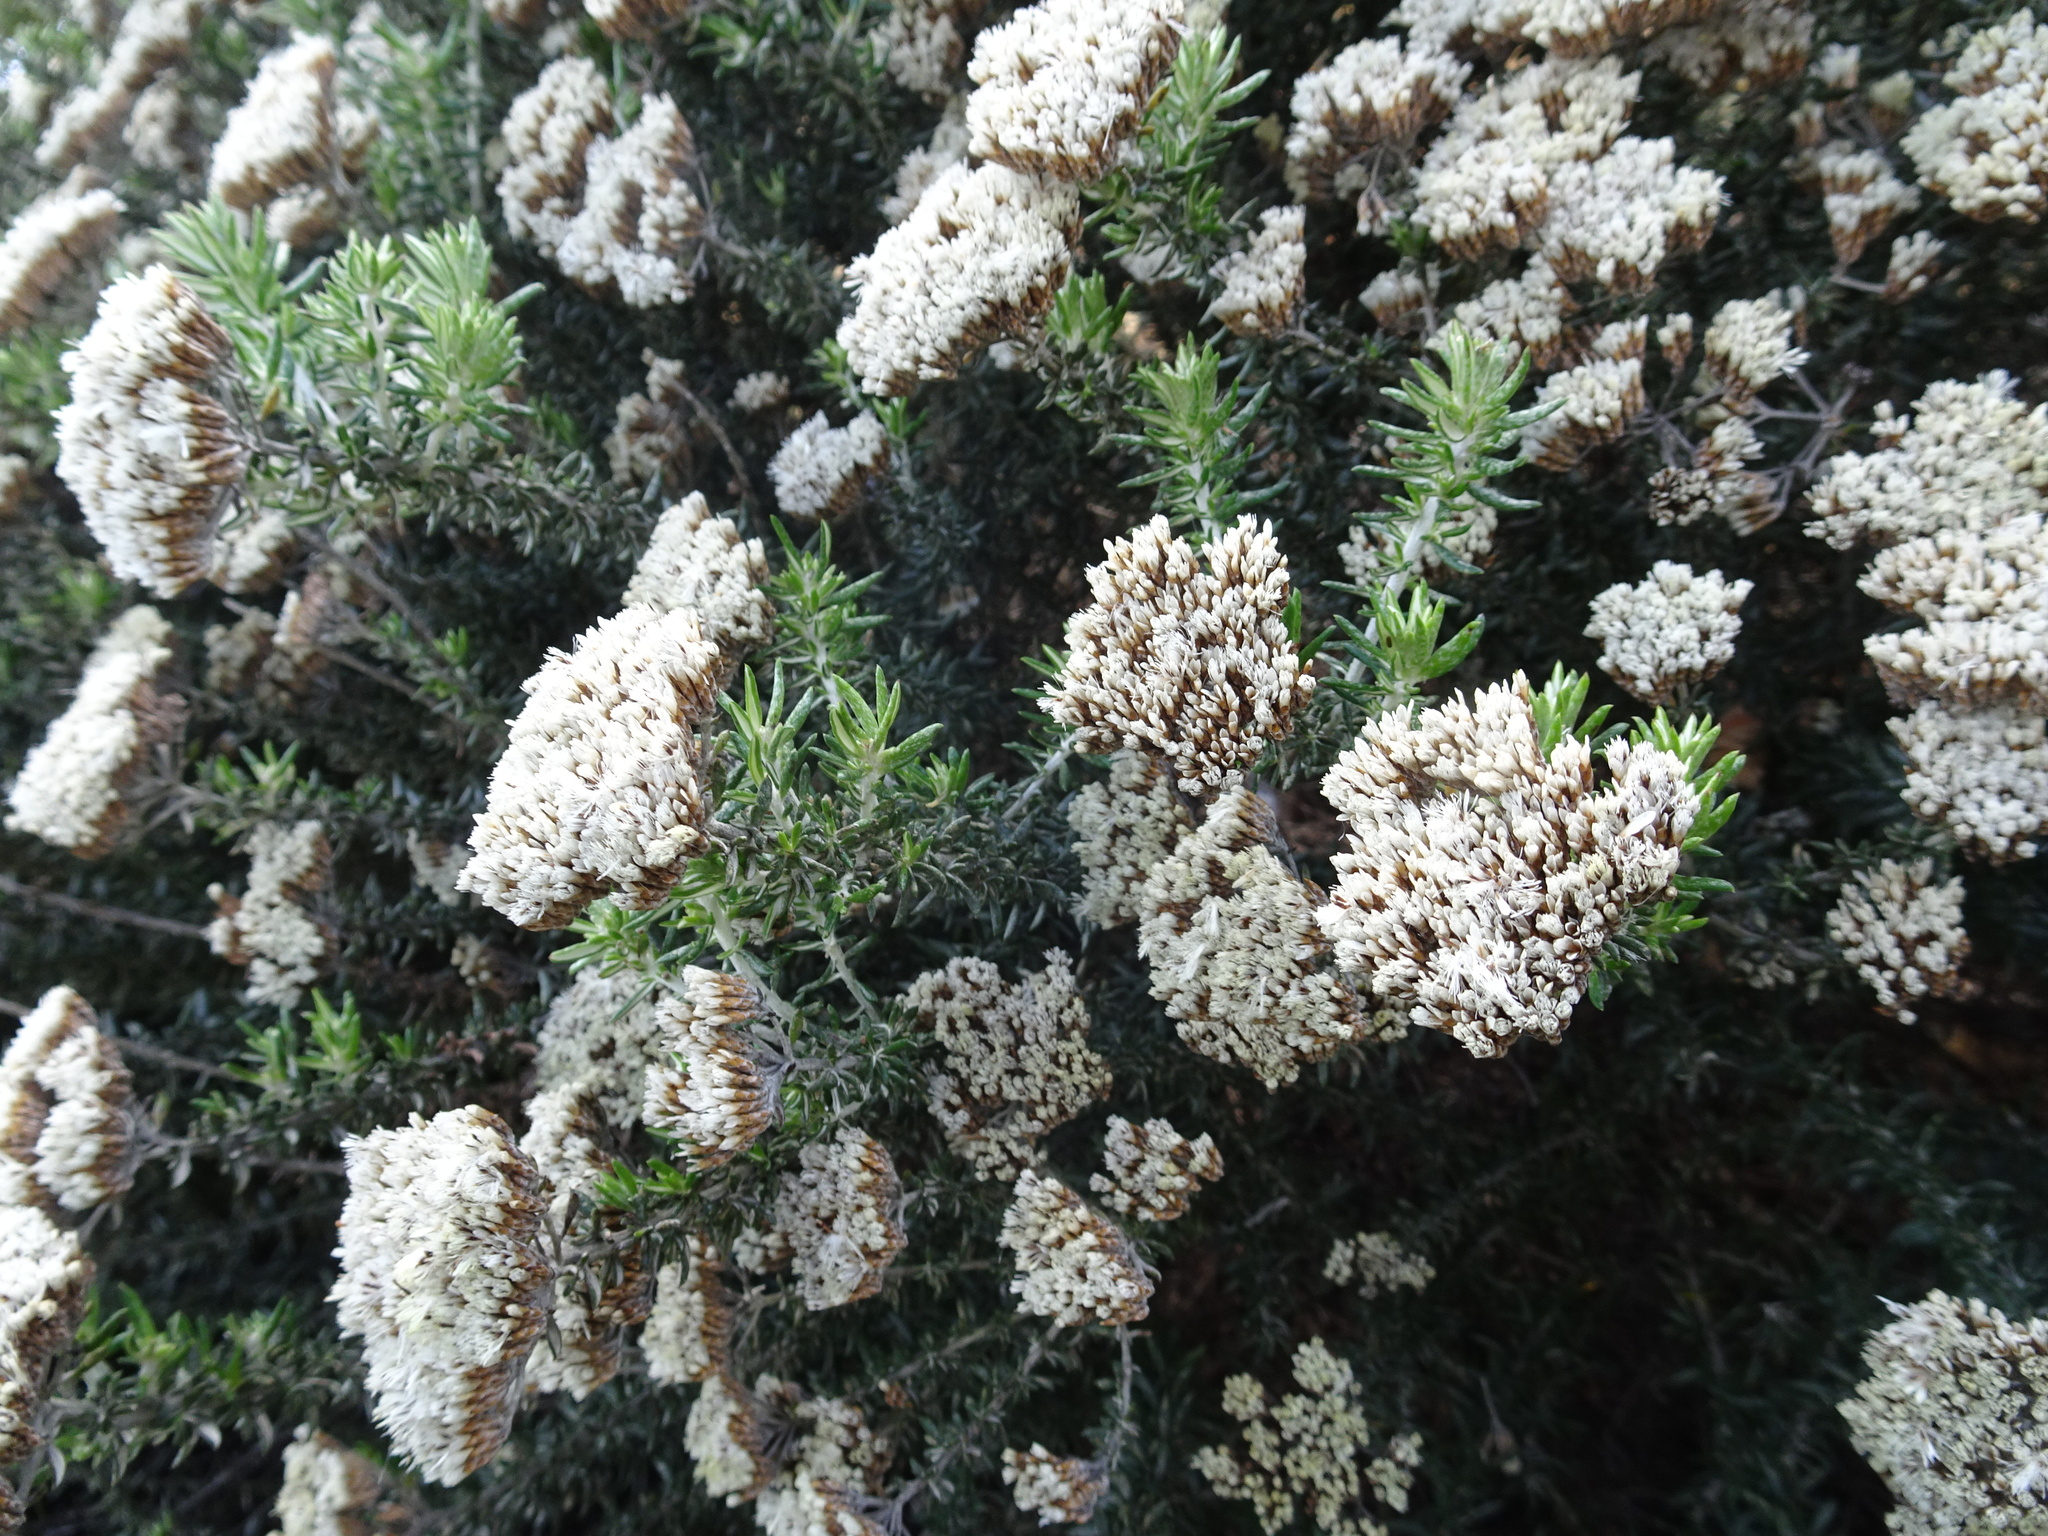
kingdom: Plantae
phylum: Tracheophyta
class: Magnoliopsida
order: Asterales
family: Asteraceae
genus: Metalasia
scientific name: Metalasia densa
